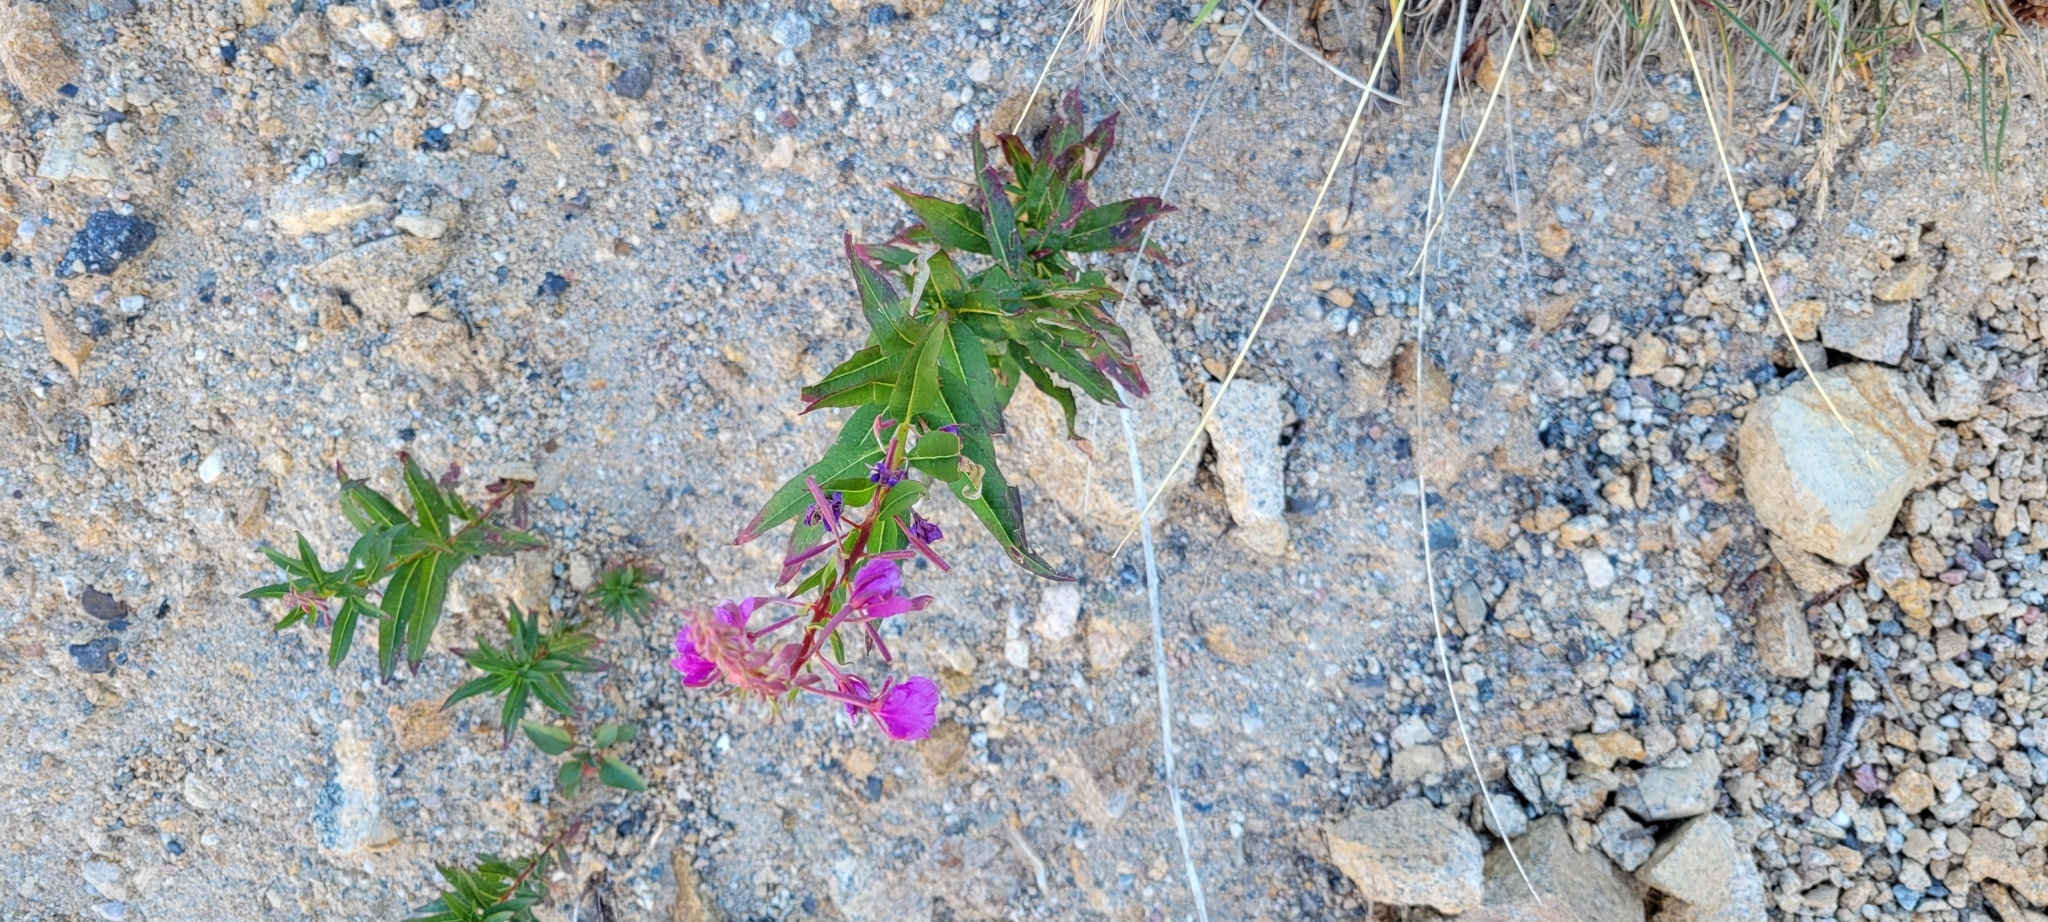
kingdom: Plantae
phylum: Tracheophyta
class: Magnoliopsida
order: Myrtales
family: Onagraceae
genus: Chamaenerion
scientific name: Chamaenerion angustifolium
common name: Fireweed
